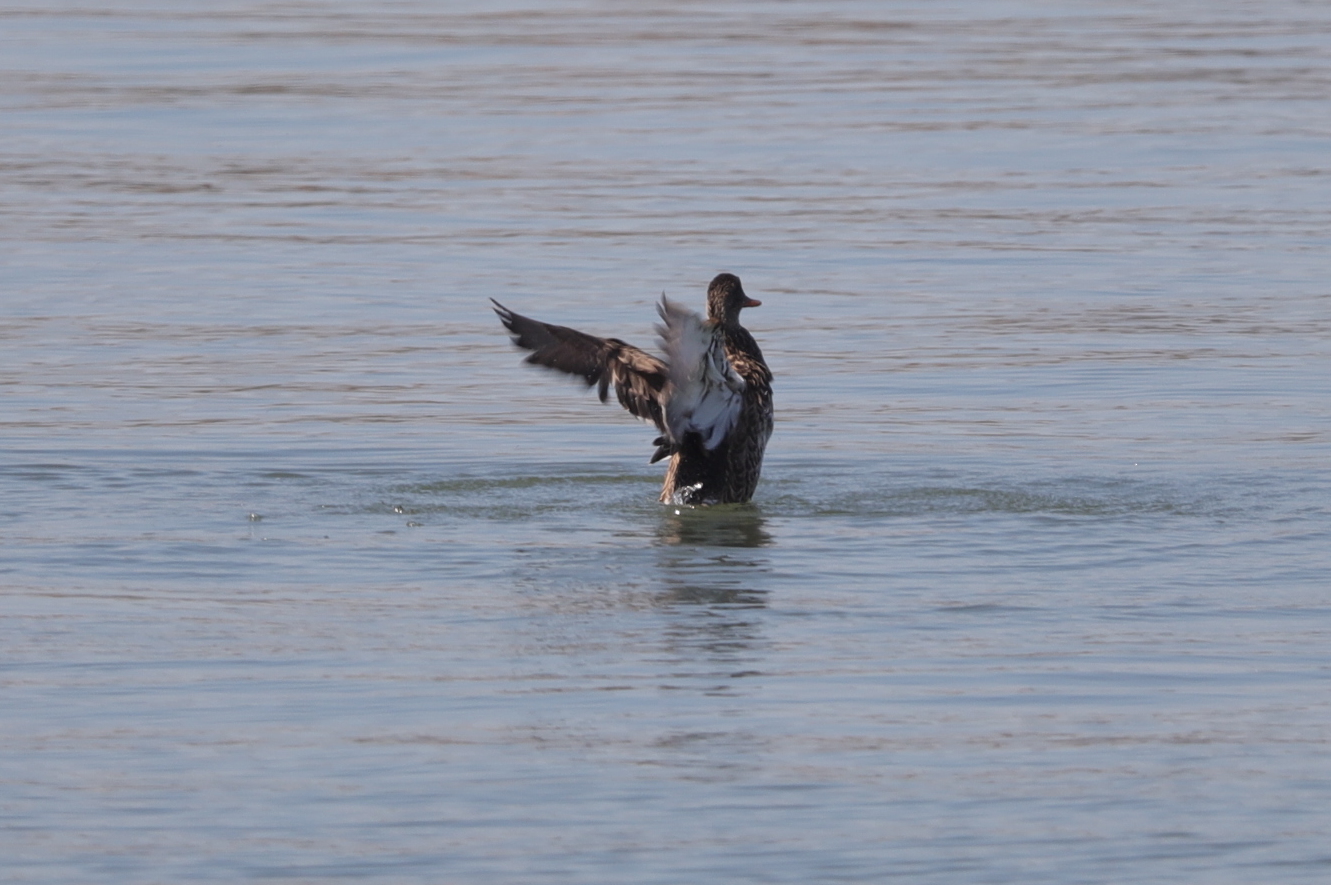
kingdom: Animalia
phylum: Chordata
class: Aves
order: Anseriformes
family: Anatidae
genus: Mareca
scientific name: Mareca strepera
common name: Gadwall
